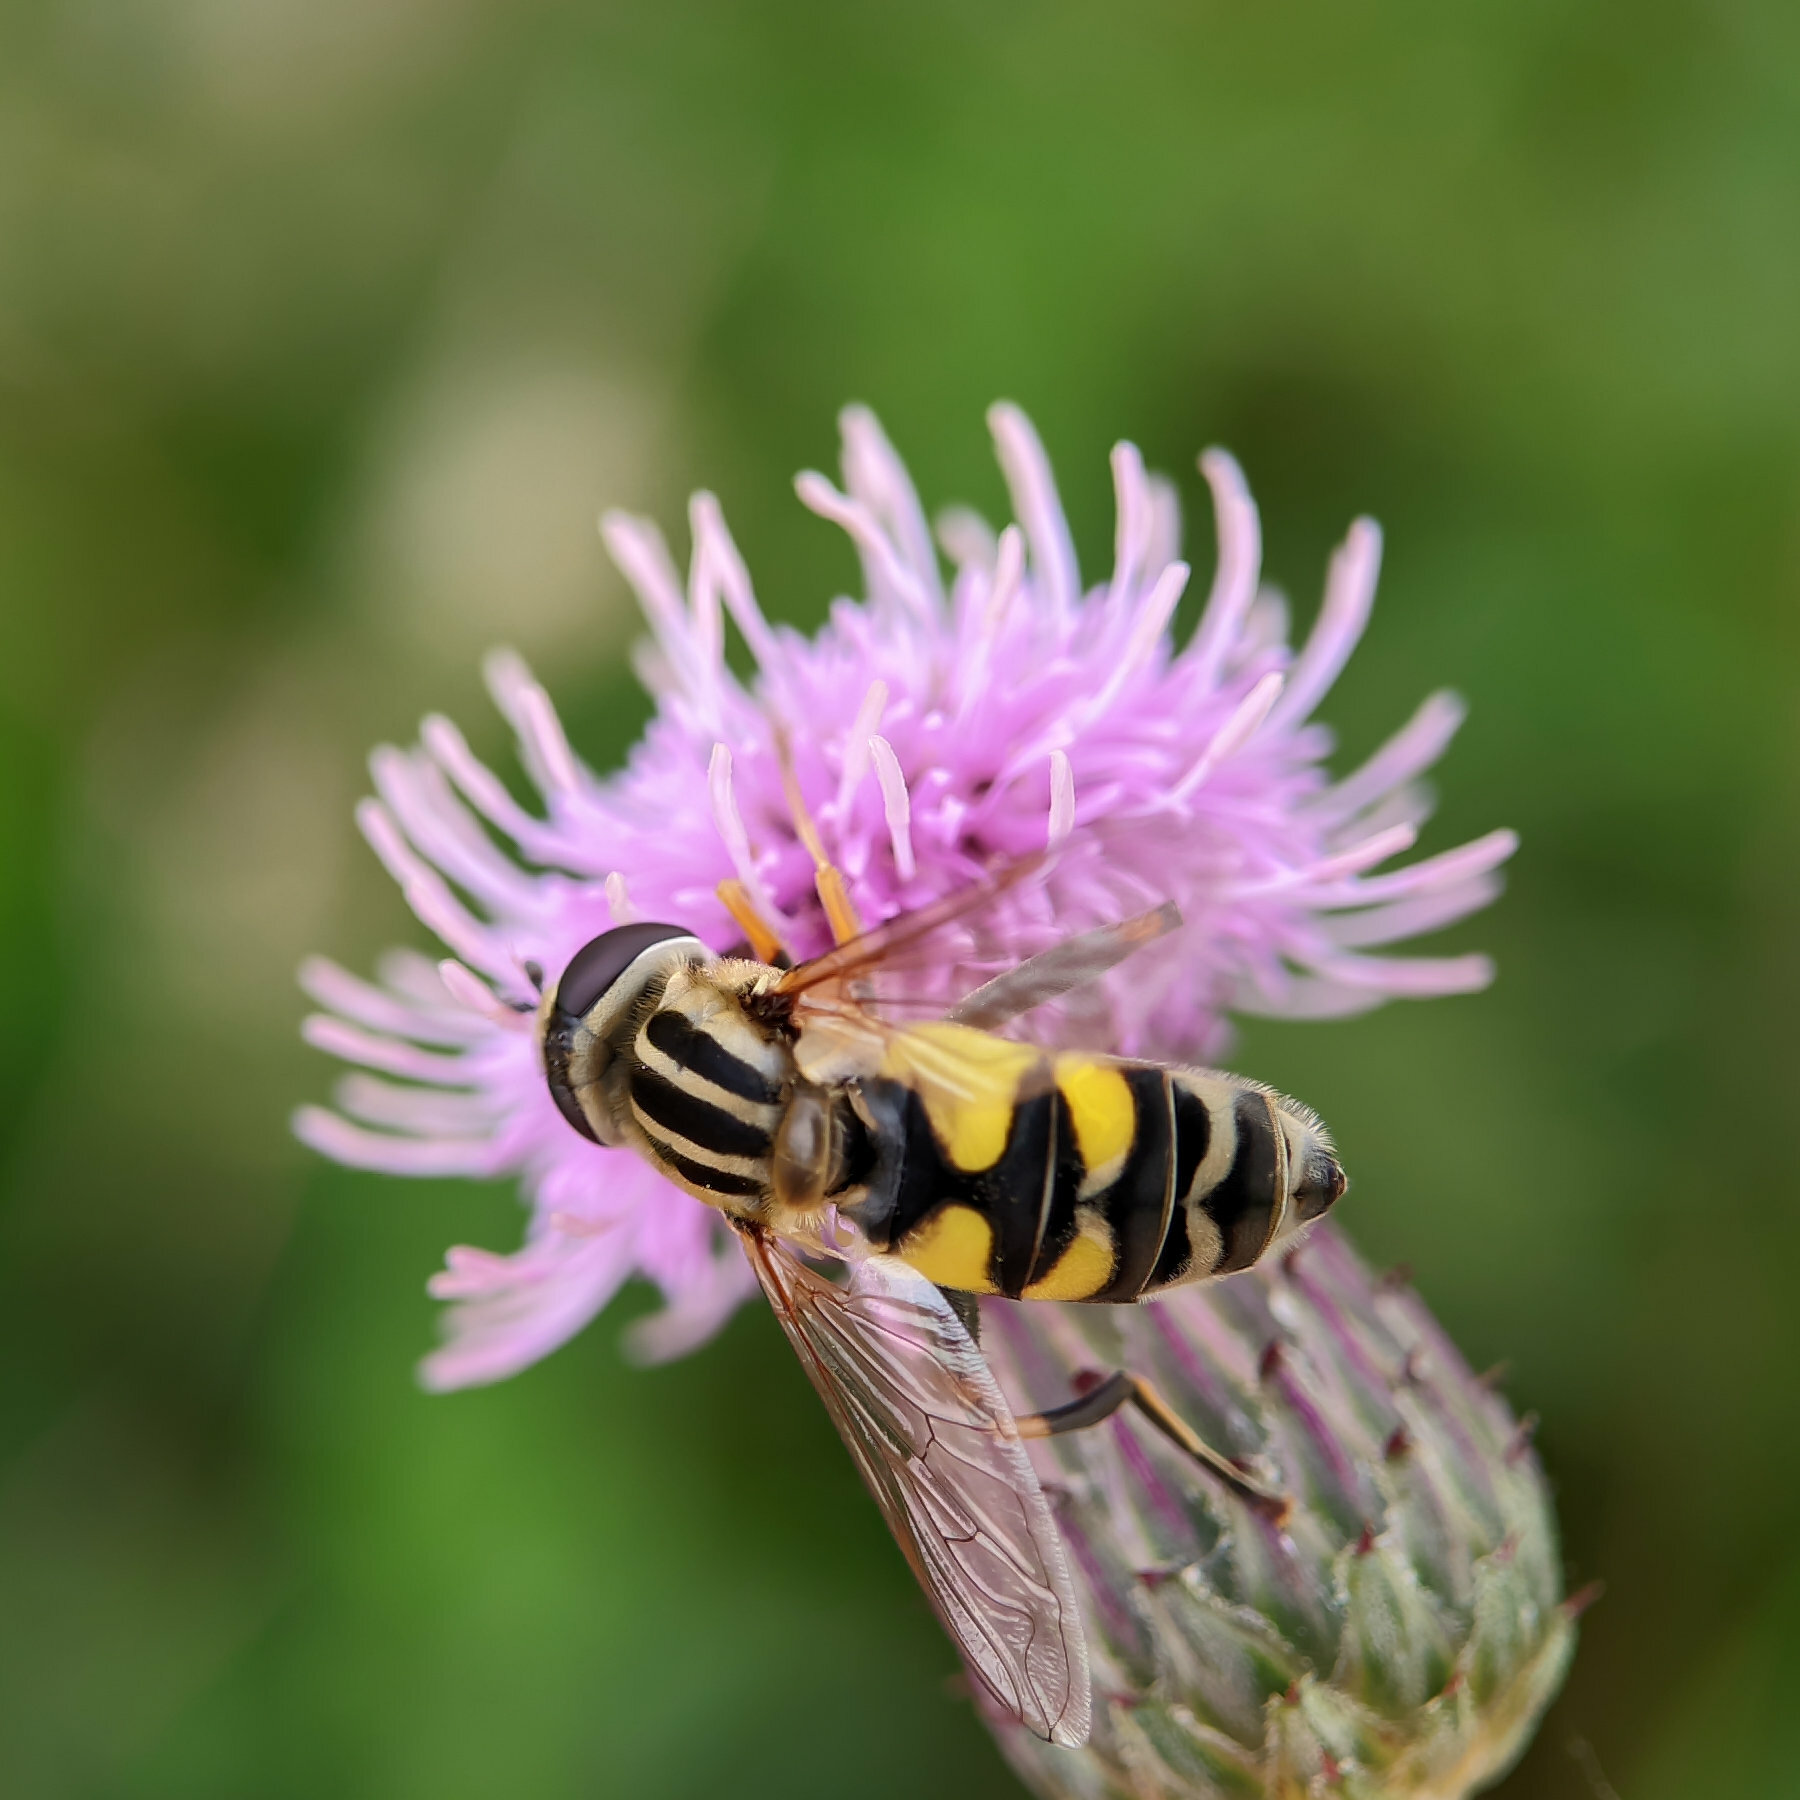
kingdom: Animalia
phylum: Arthropoda
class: Insecta
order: Diptera
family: Syrphidae
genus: Helophilus
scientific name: Helophilus trivittatus
